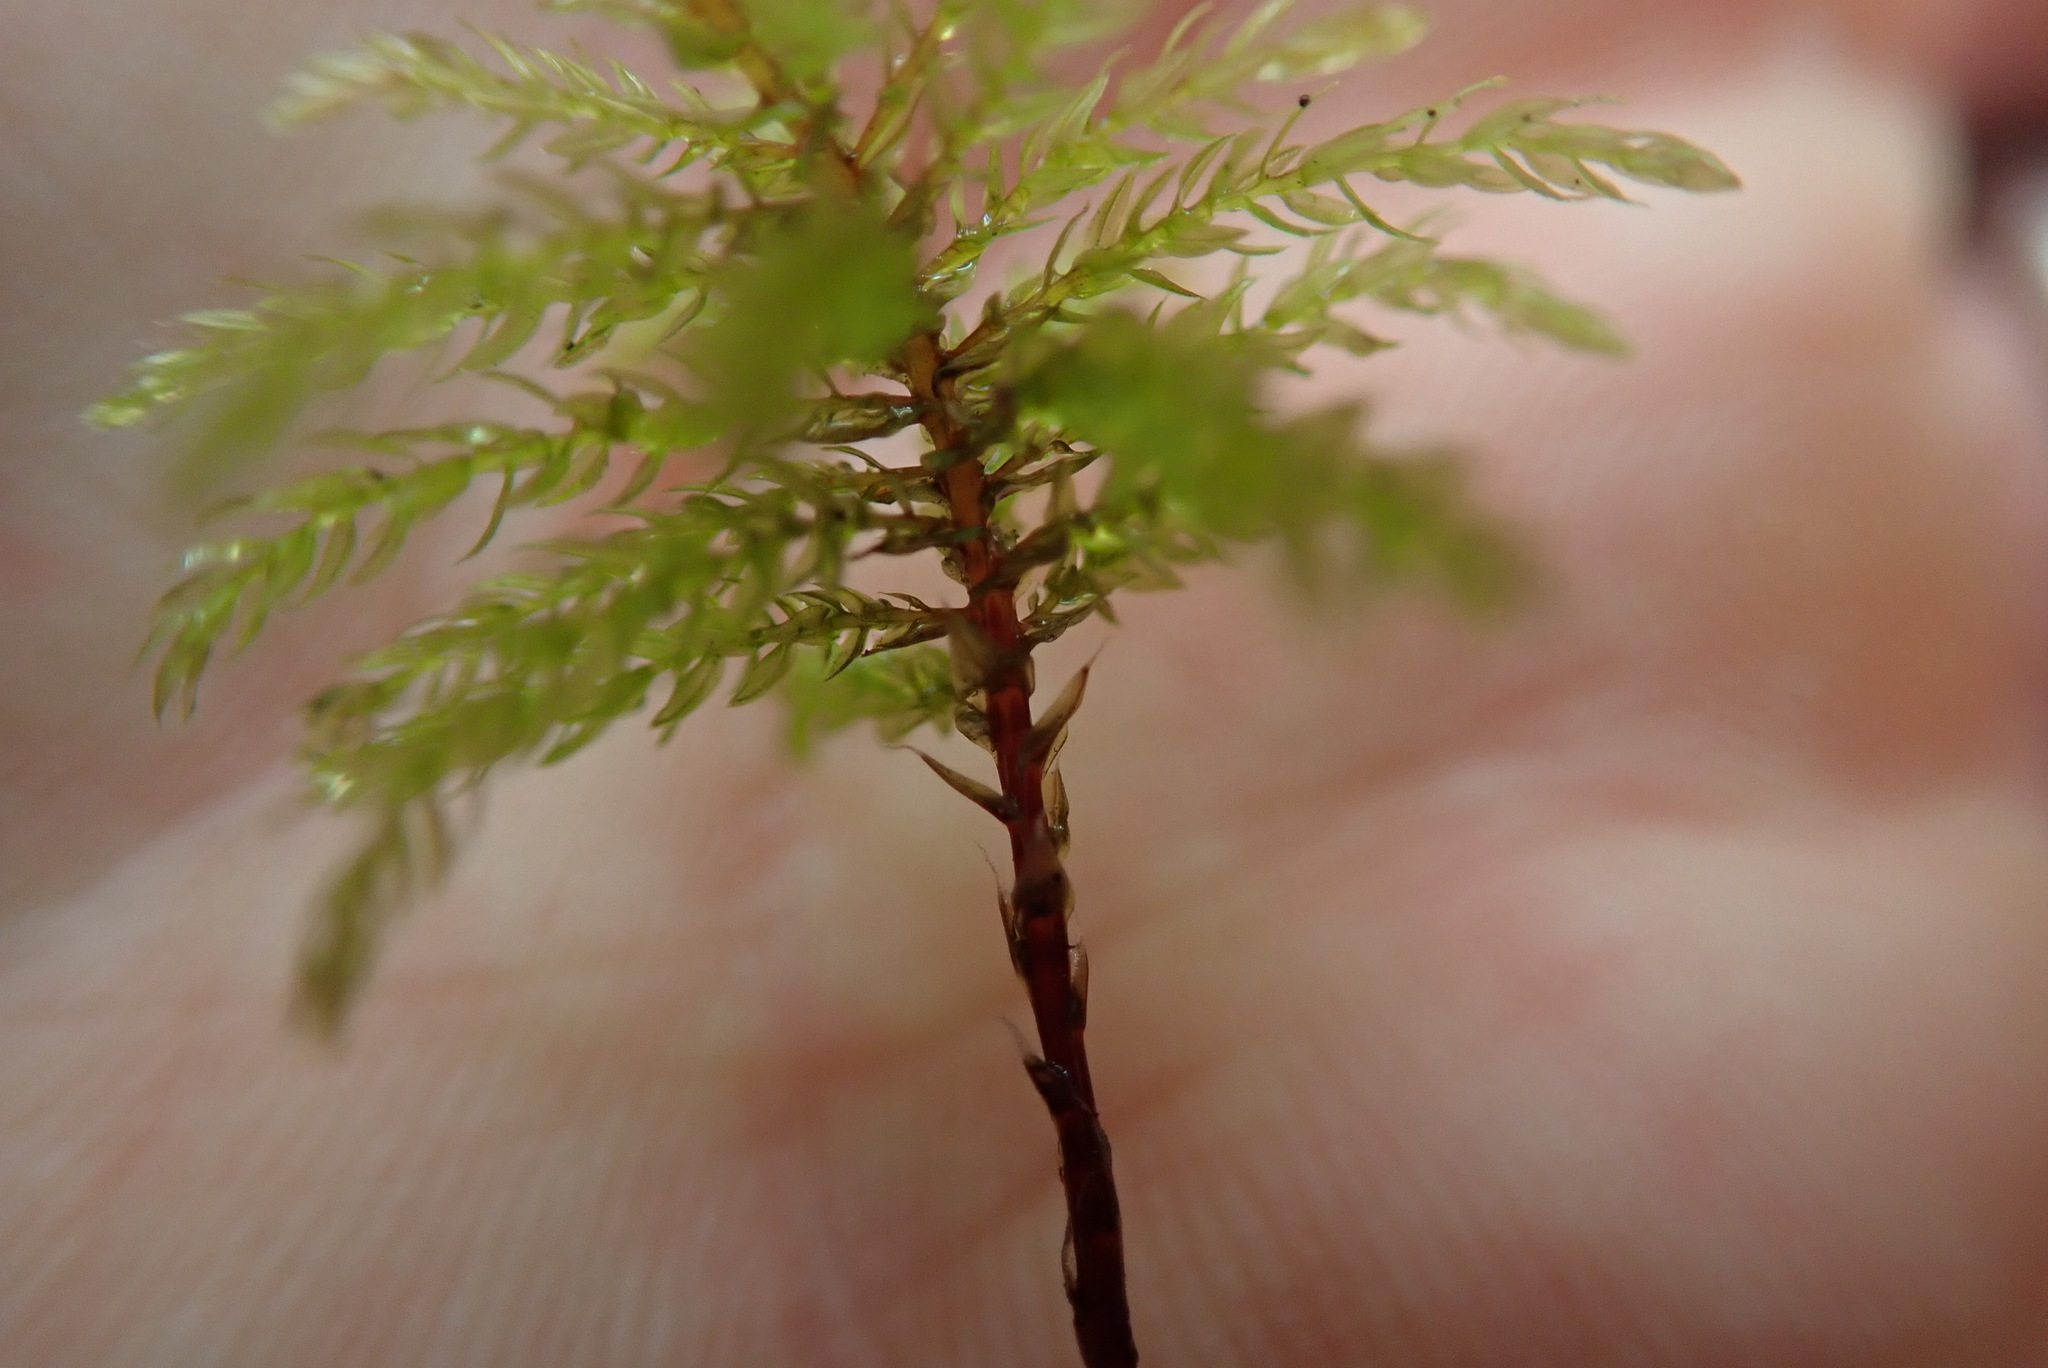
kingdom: Plantae
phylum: Bryophyta
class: Bryopsida
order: Bryales
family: Mniaceae
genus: Leucolepis
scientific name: Leucolepis acanthoneura
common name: Leucolepis umbrella moss
